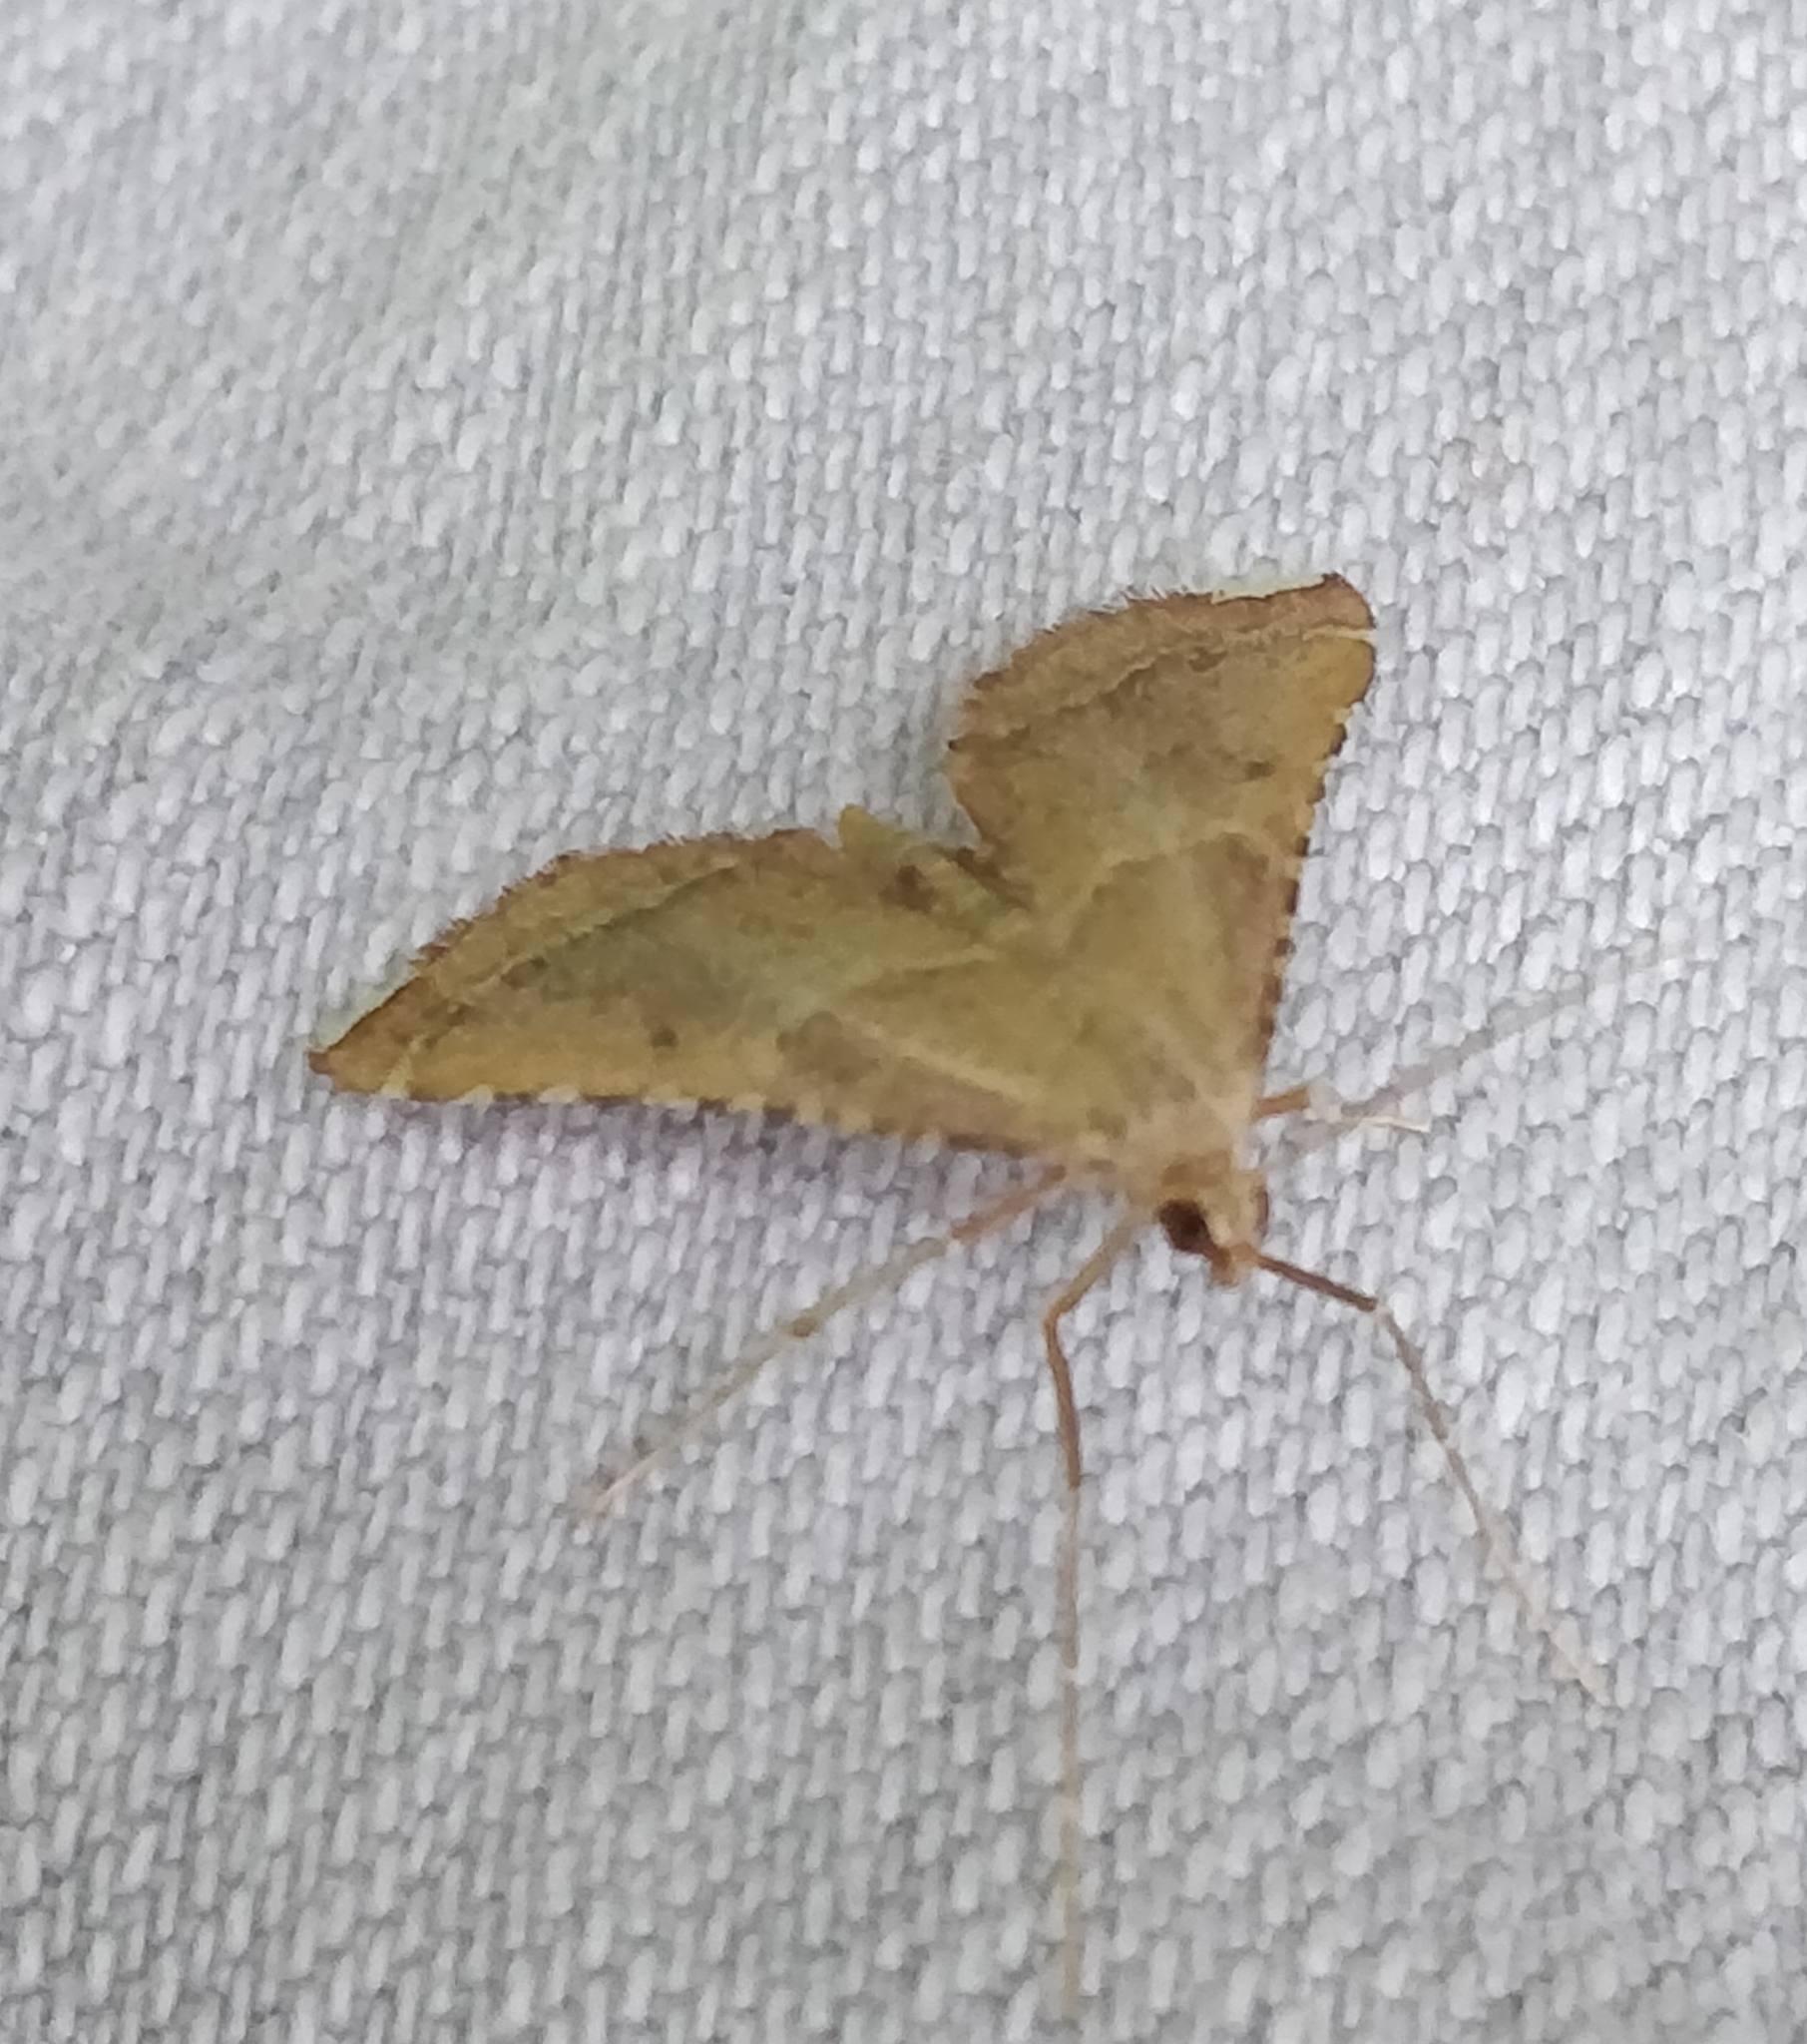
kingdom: Animalia
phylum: Arthropoda
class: Insecta
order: Lepidoptera
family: Pyralidae
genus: Endotricha
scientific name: Endotricha flammealis
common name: Rosy tabby
